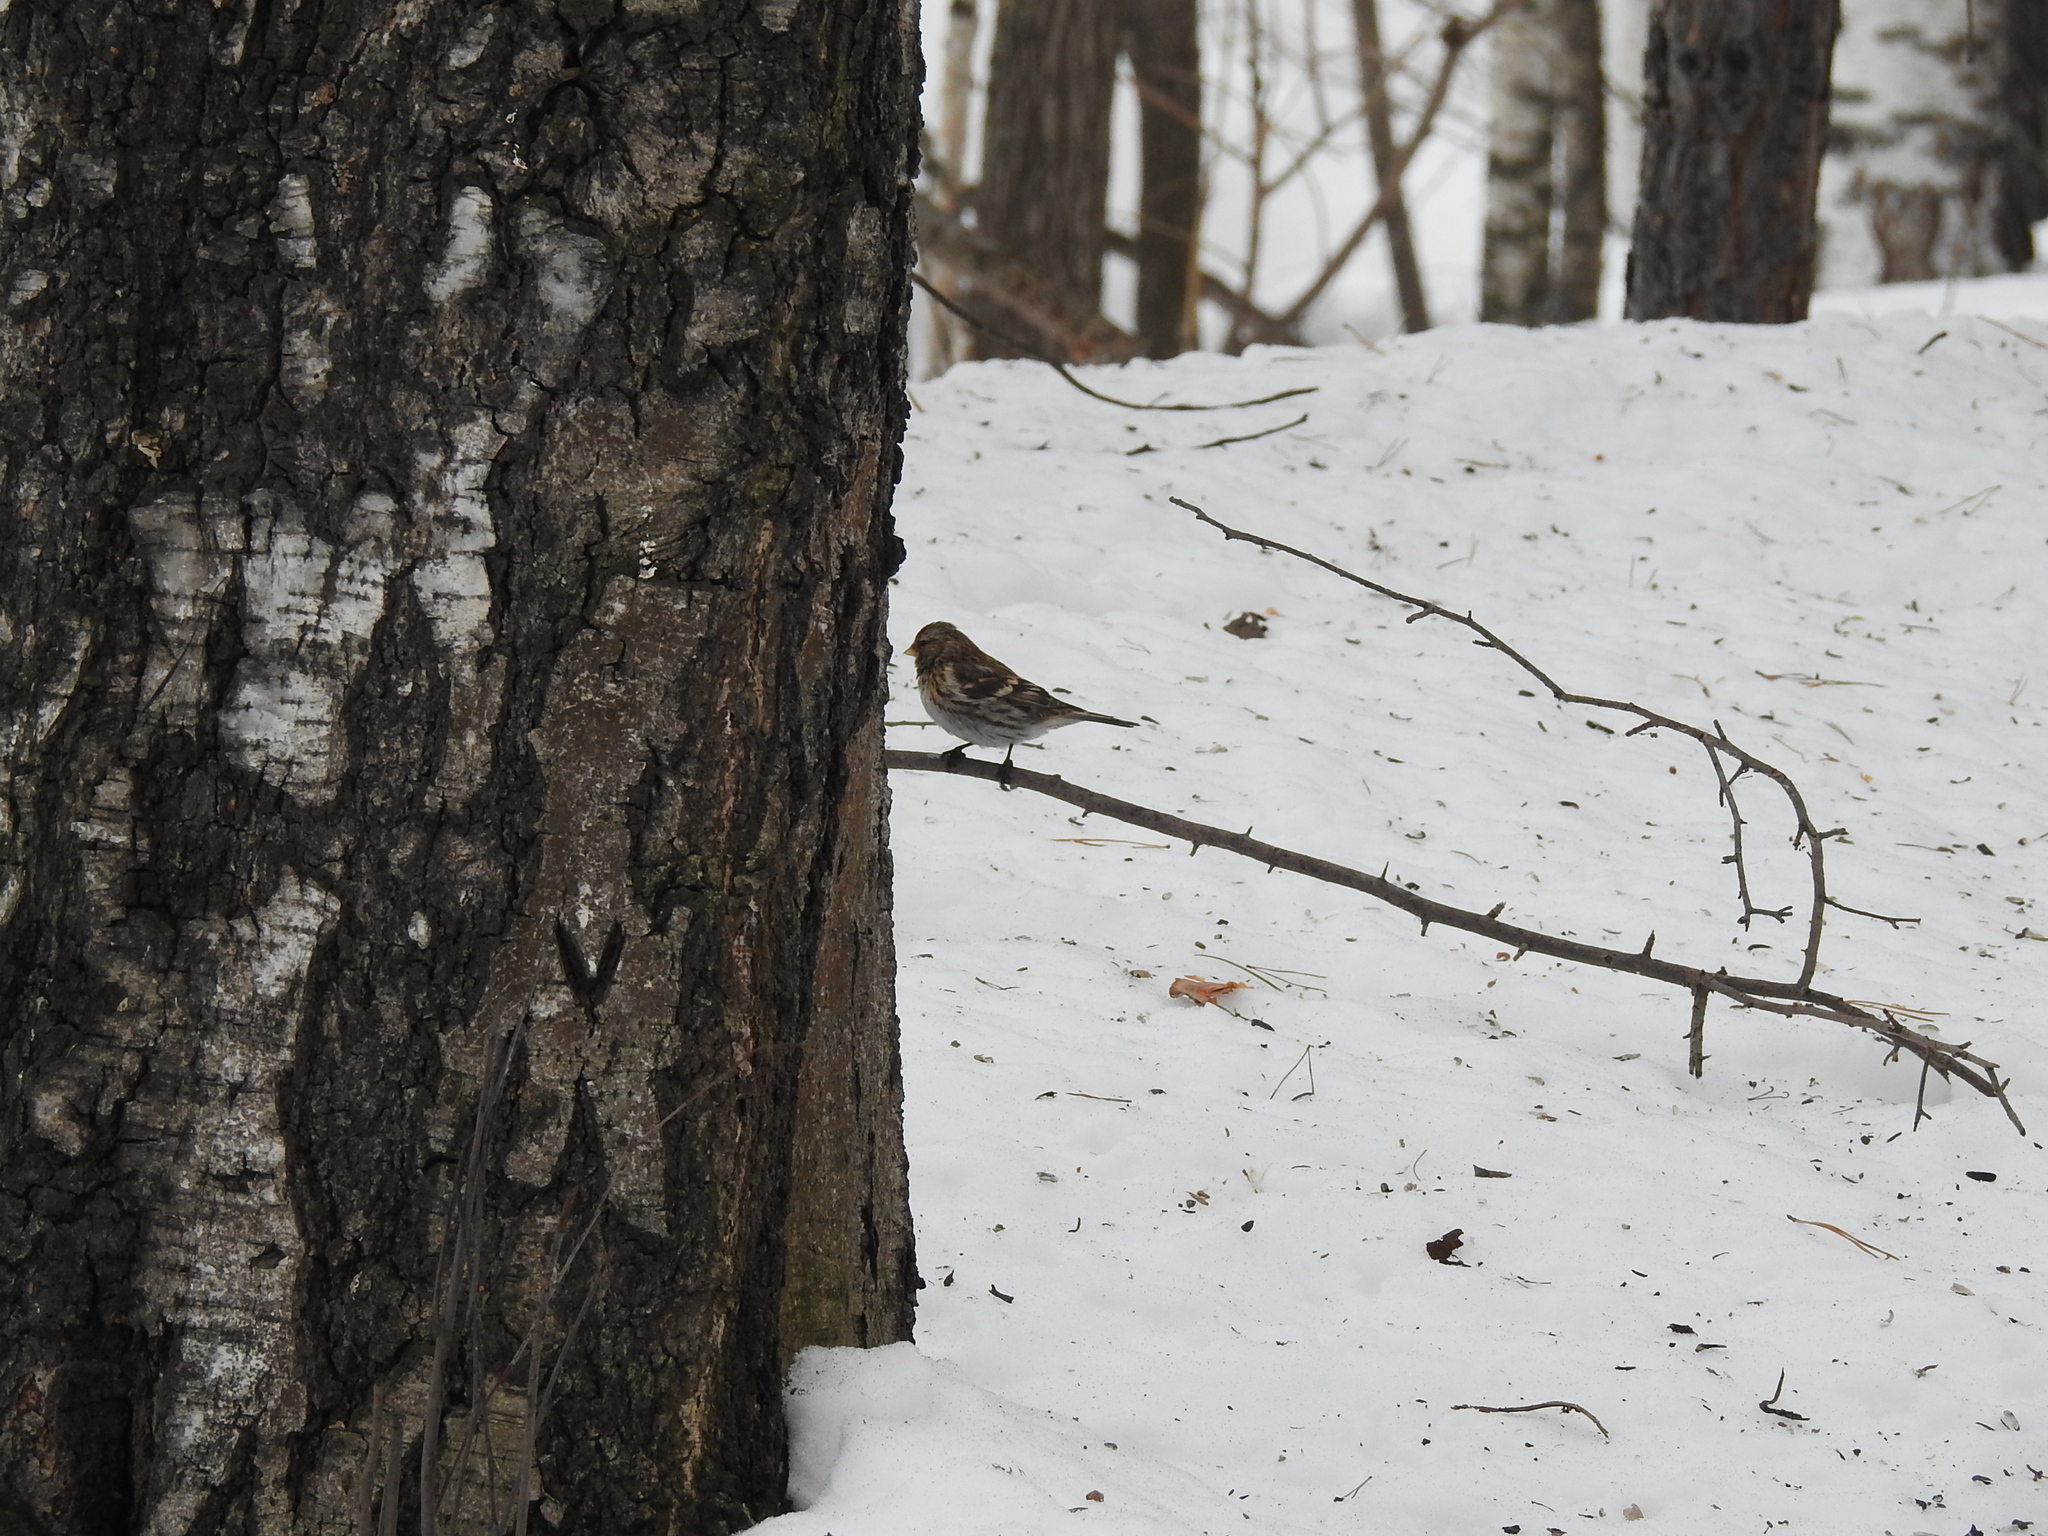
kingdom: Animalia
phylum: Chordata
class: Aves
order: Passeriformes
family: Fringillidae
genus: Acanthis
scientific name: Acanthis flammea
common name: Common redpoll
